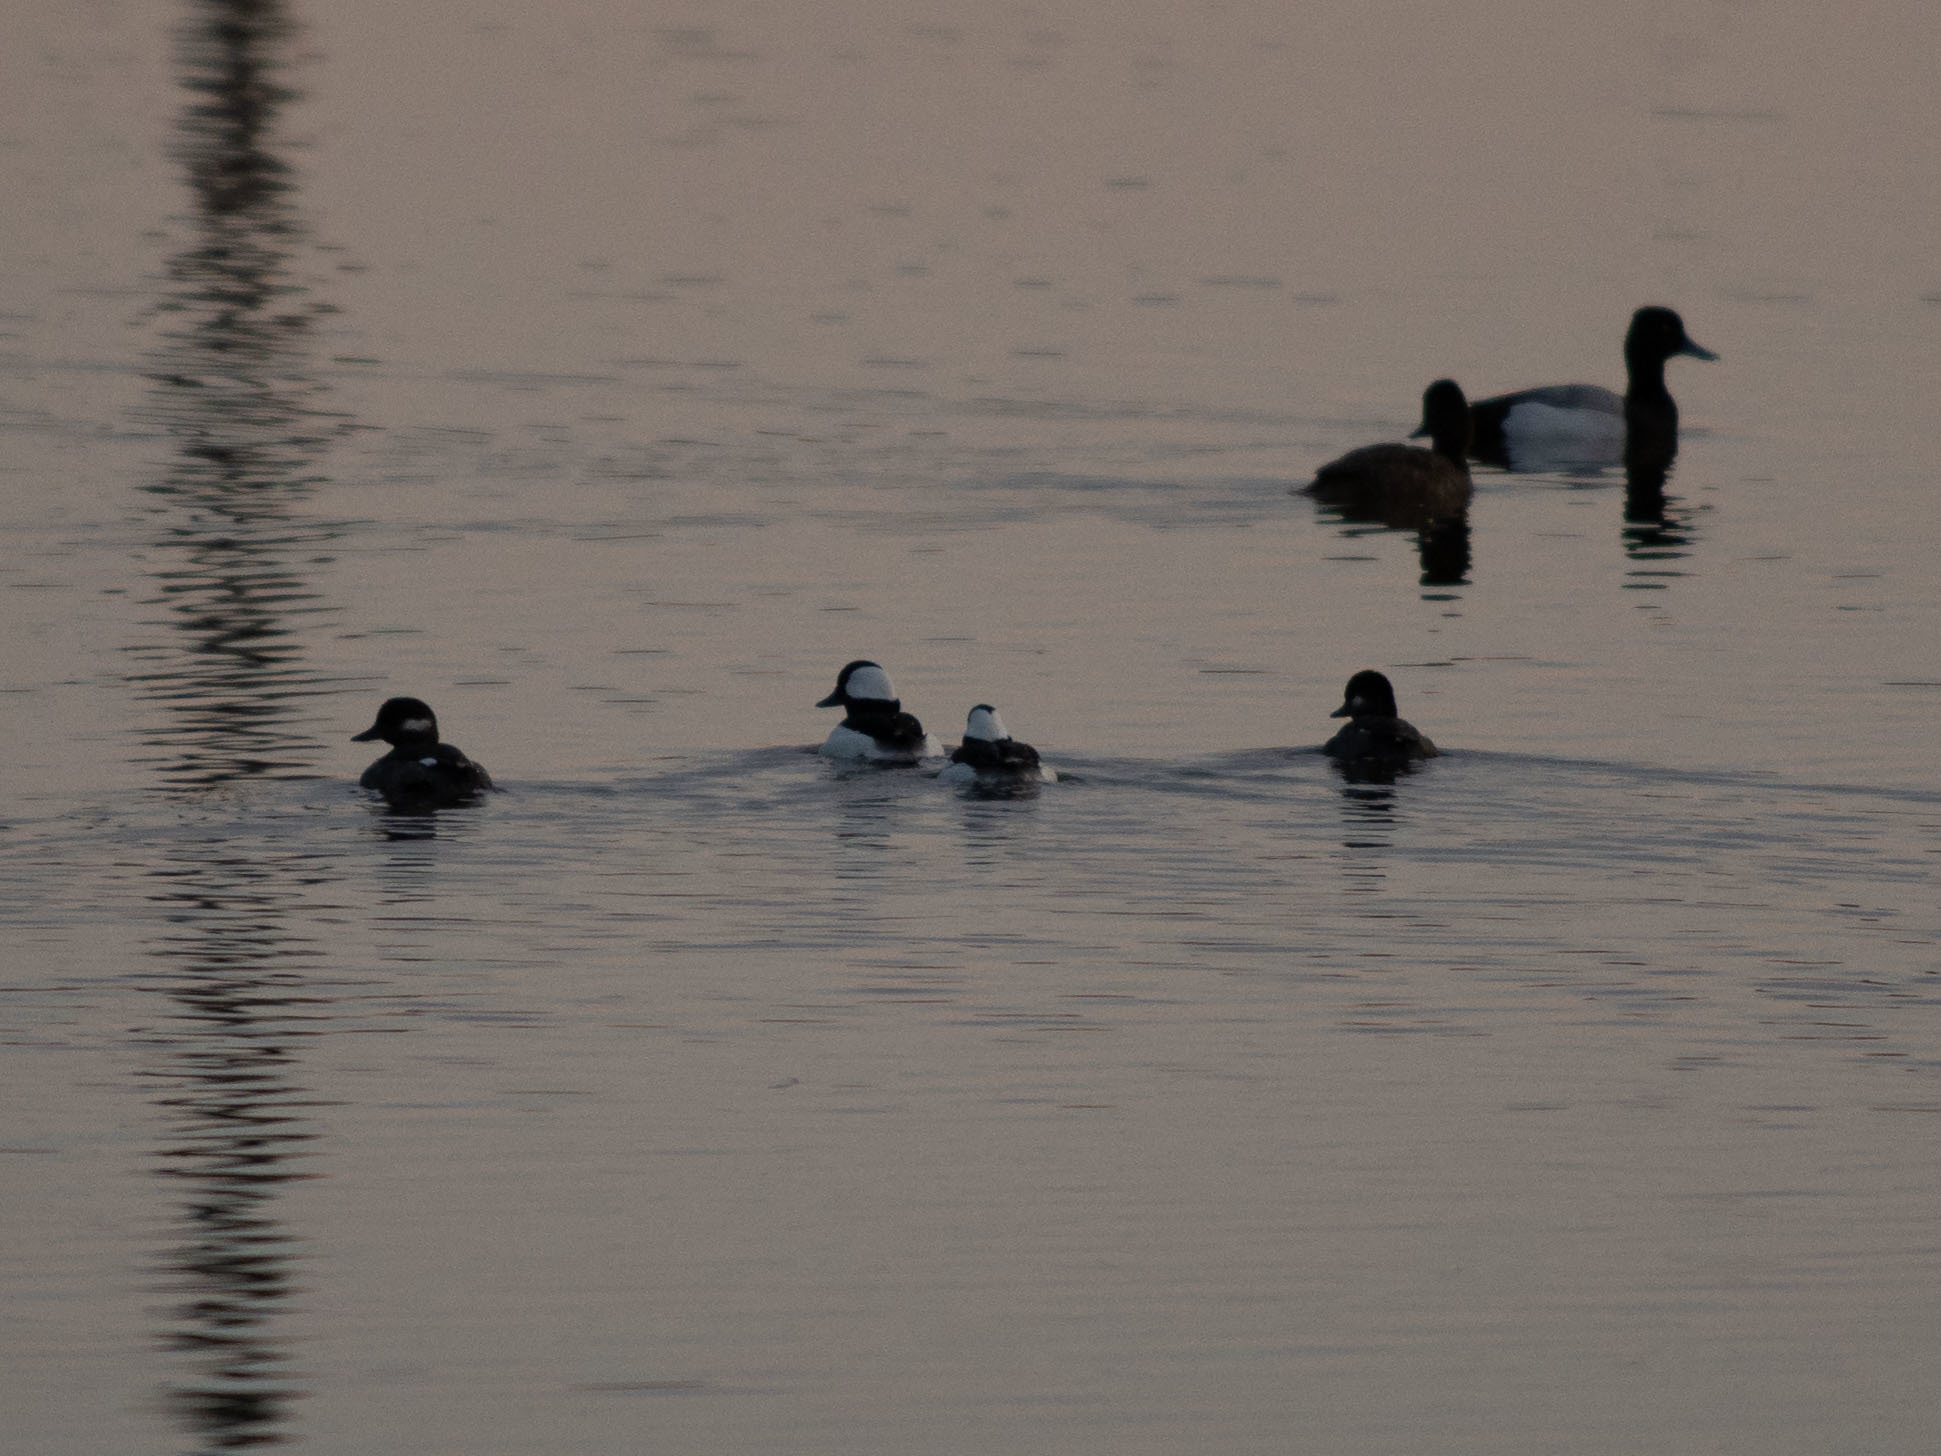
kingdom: Animalia
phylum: Chordata
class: Aves
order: Anseriformes
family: Anatidae
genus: Bucephala
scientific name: Bucephala albeola
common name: Bufflehead
